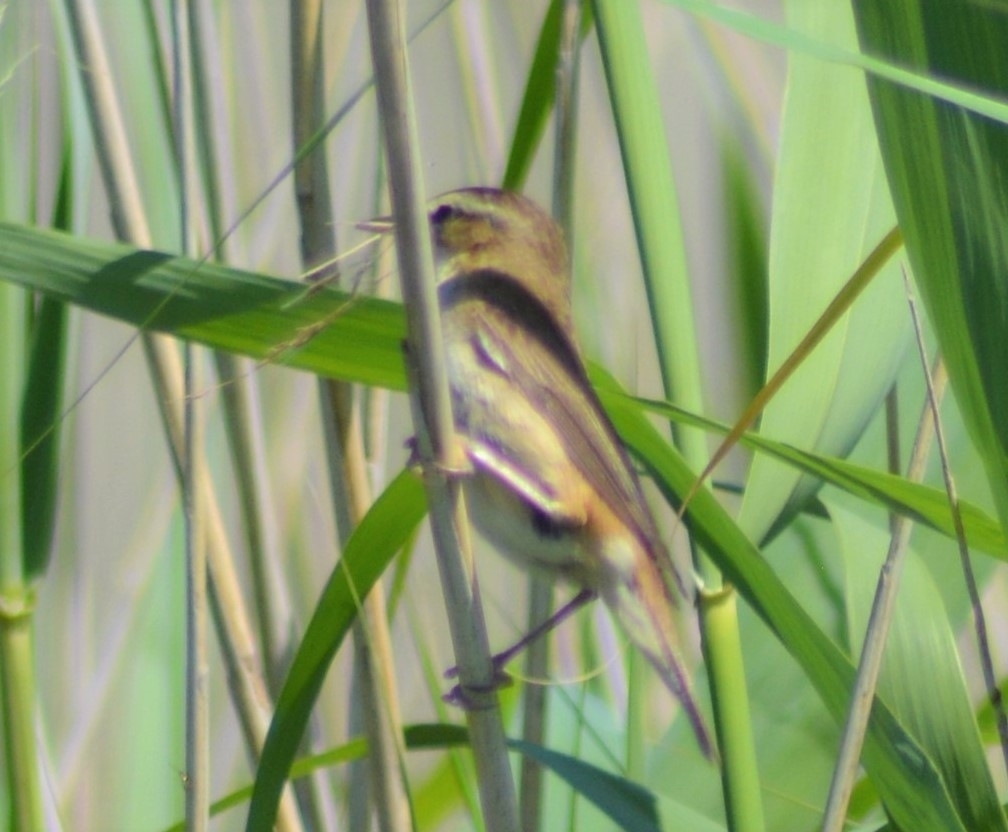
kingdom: Animalia
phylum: Chordata
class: Aves
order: Passeriformes
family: Acrocephalidae
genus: Acrocephalus
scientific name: Acrocephalus schoenobaenus
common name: Sedge warbler
